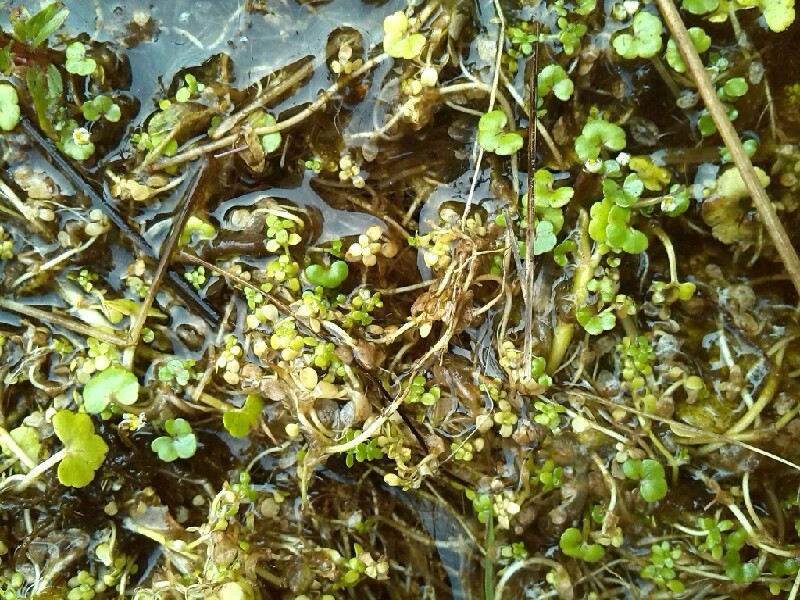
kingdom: Plantae
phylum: Tracheophyta
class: Magnoliopsida
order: Ranunculales
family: Ranunculaceae
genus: Ranunculus
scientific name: Ranunculus hederaceus
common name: Ivy-leaved crowfoot
